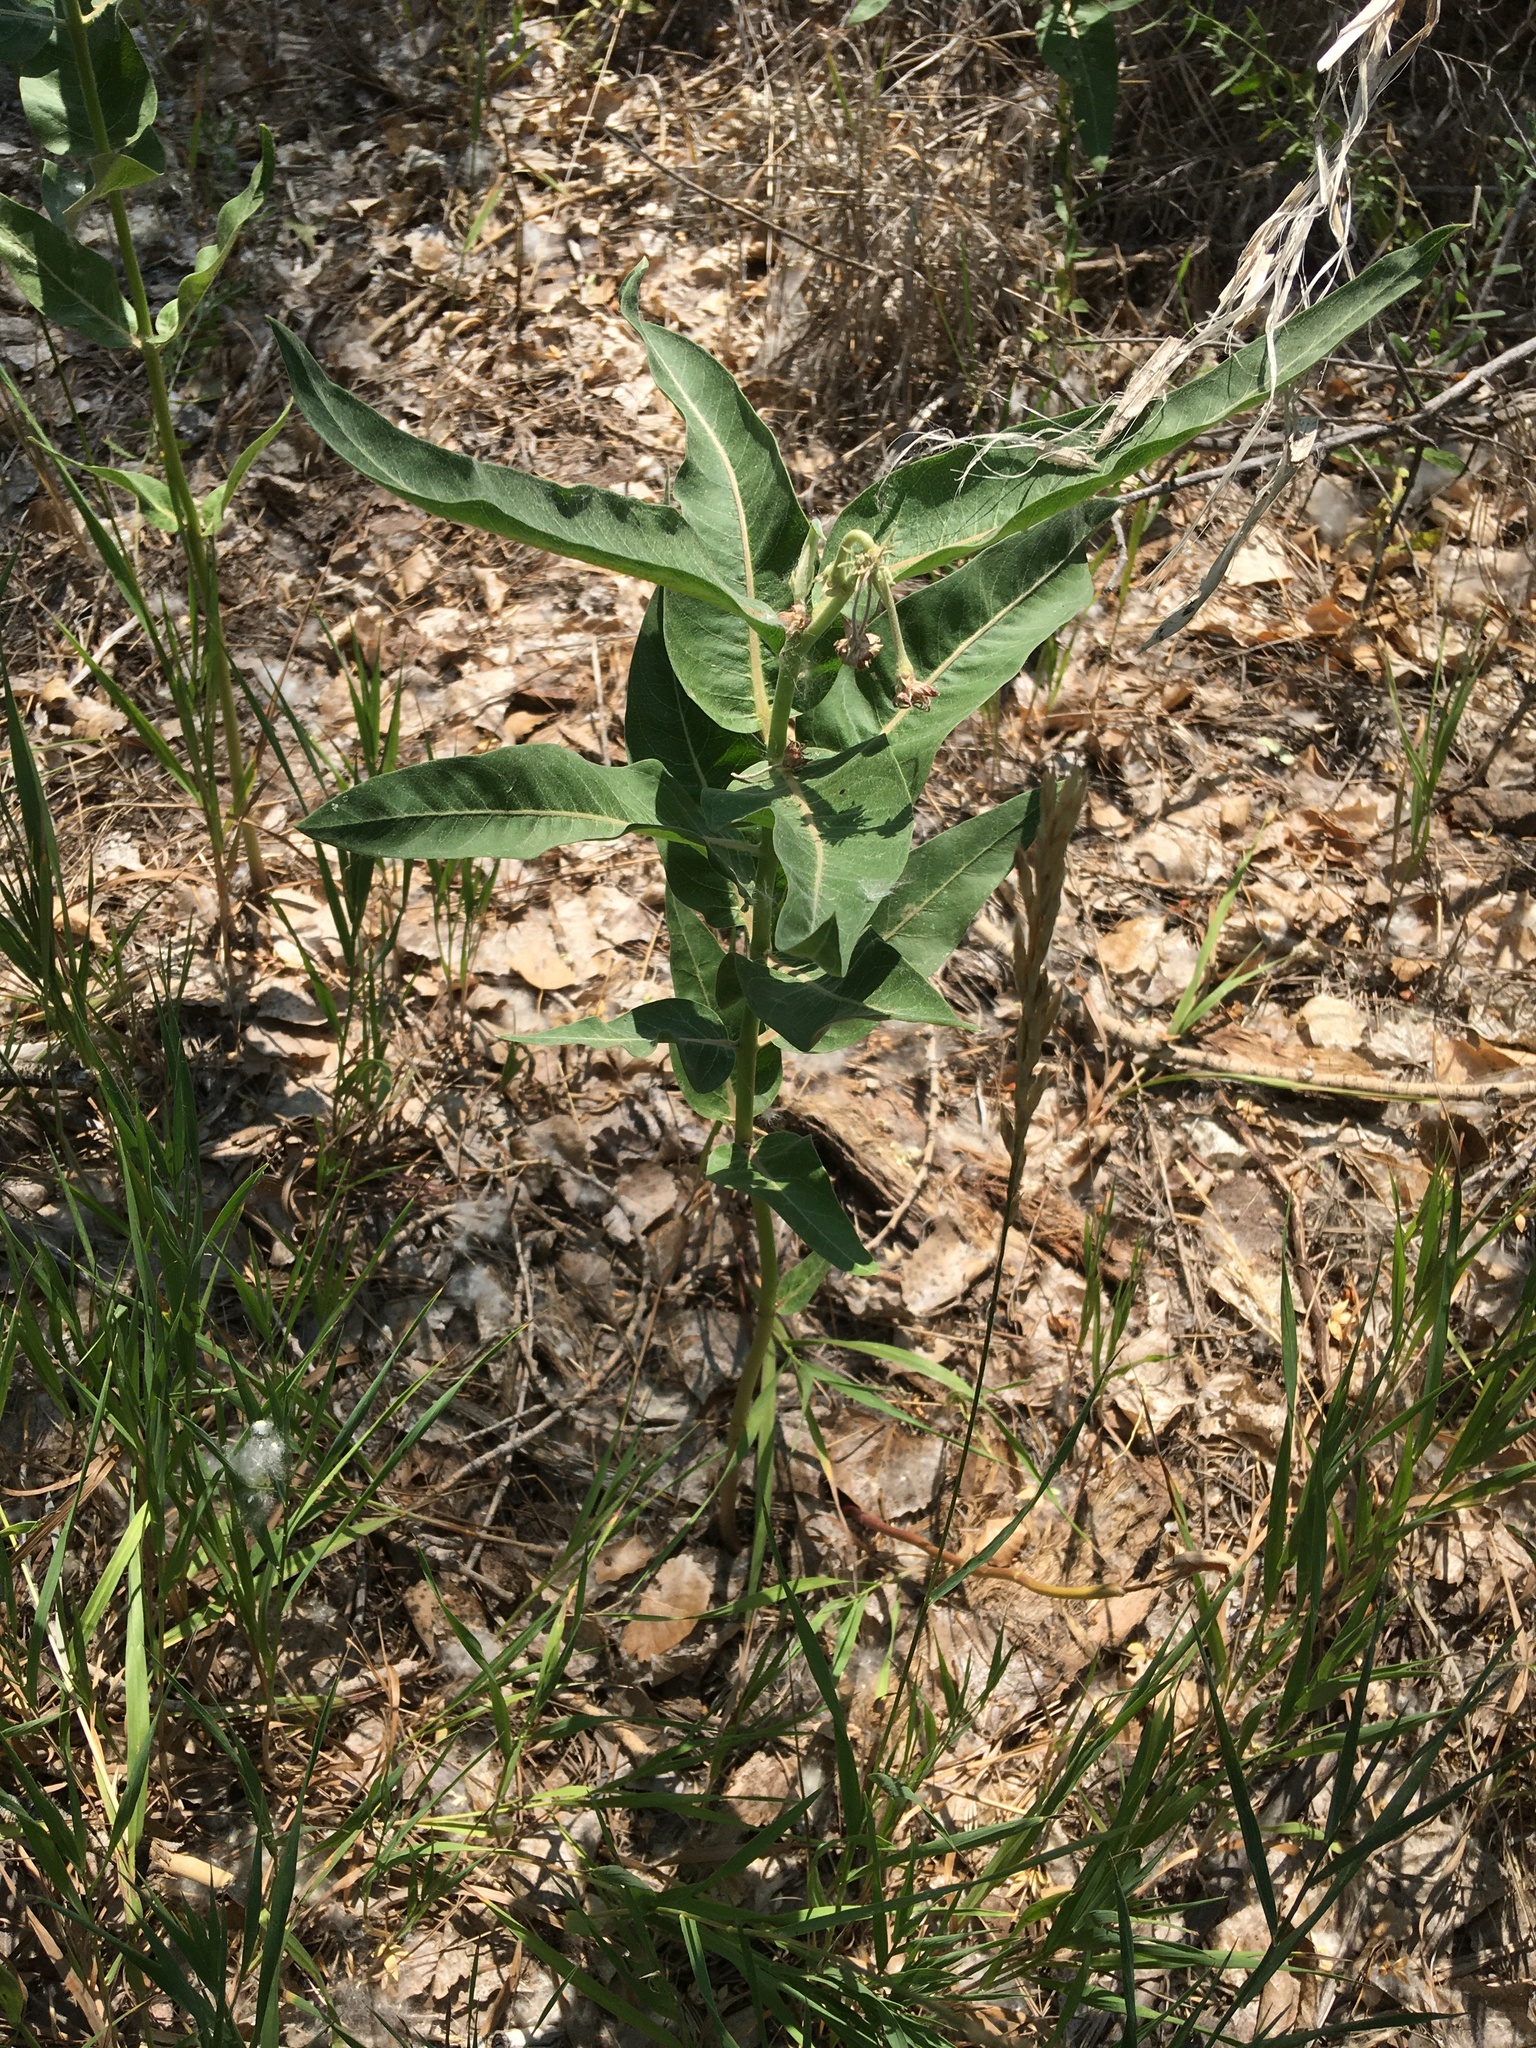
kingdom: Plantae
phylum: Tracheophyta
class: Magnoliopsida
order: Gentianales
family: Apocynaceae
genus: Asclepias
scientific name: Asclepias speciosa
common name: Showy milkweed
